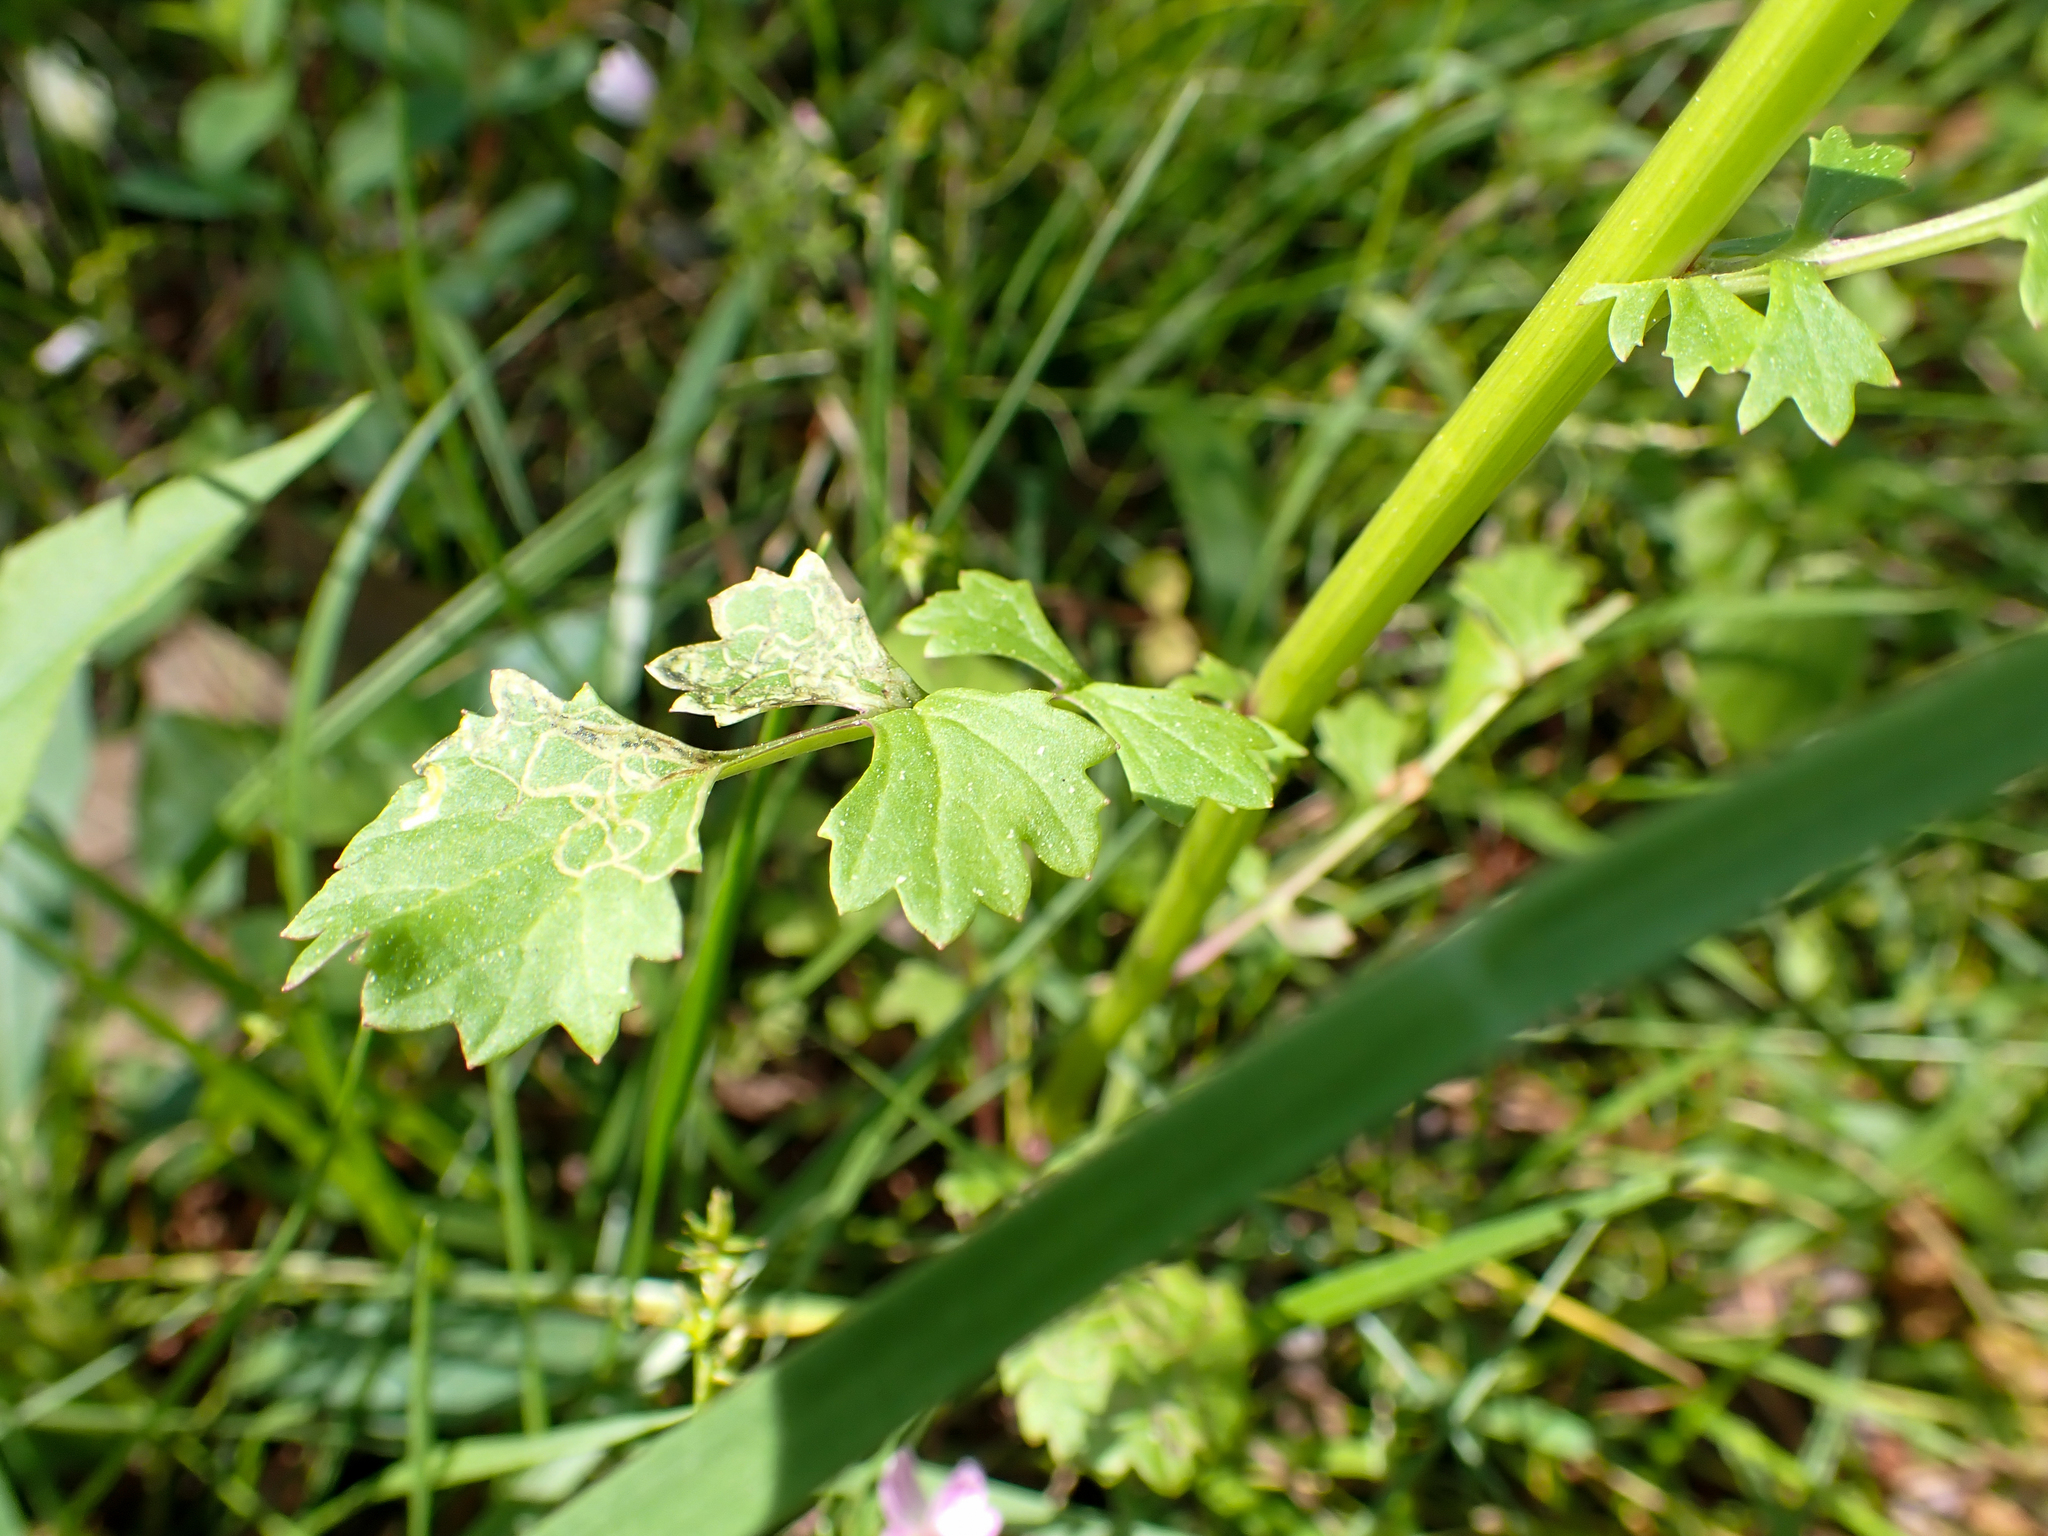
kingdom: Plantae
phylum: Tracheophyta
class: Magnoliopsida
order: Asterales
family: Asteraceae
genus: Packera
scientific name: Packera glabella
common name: Butterweed
